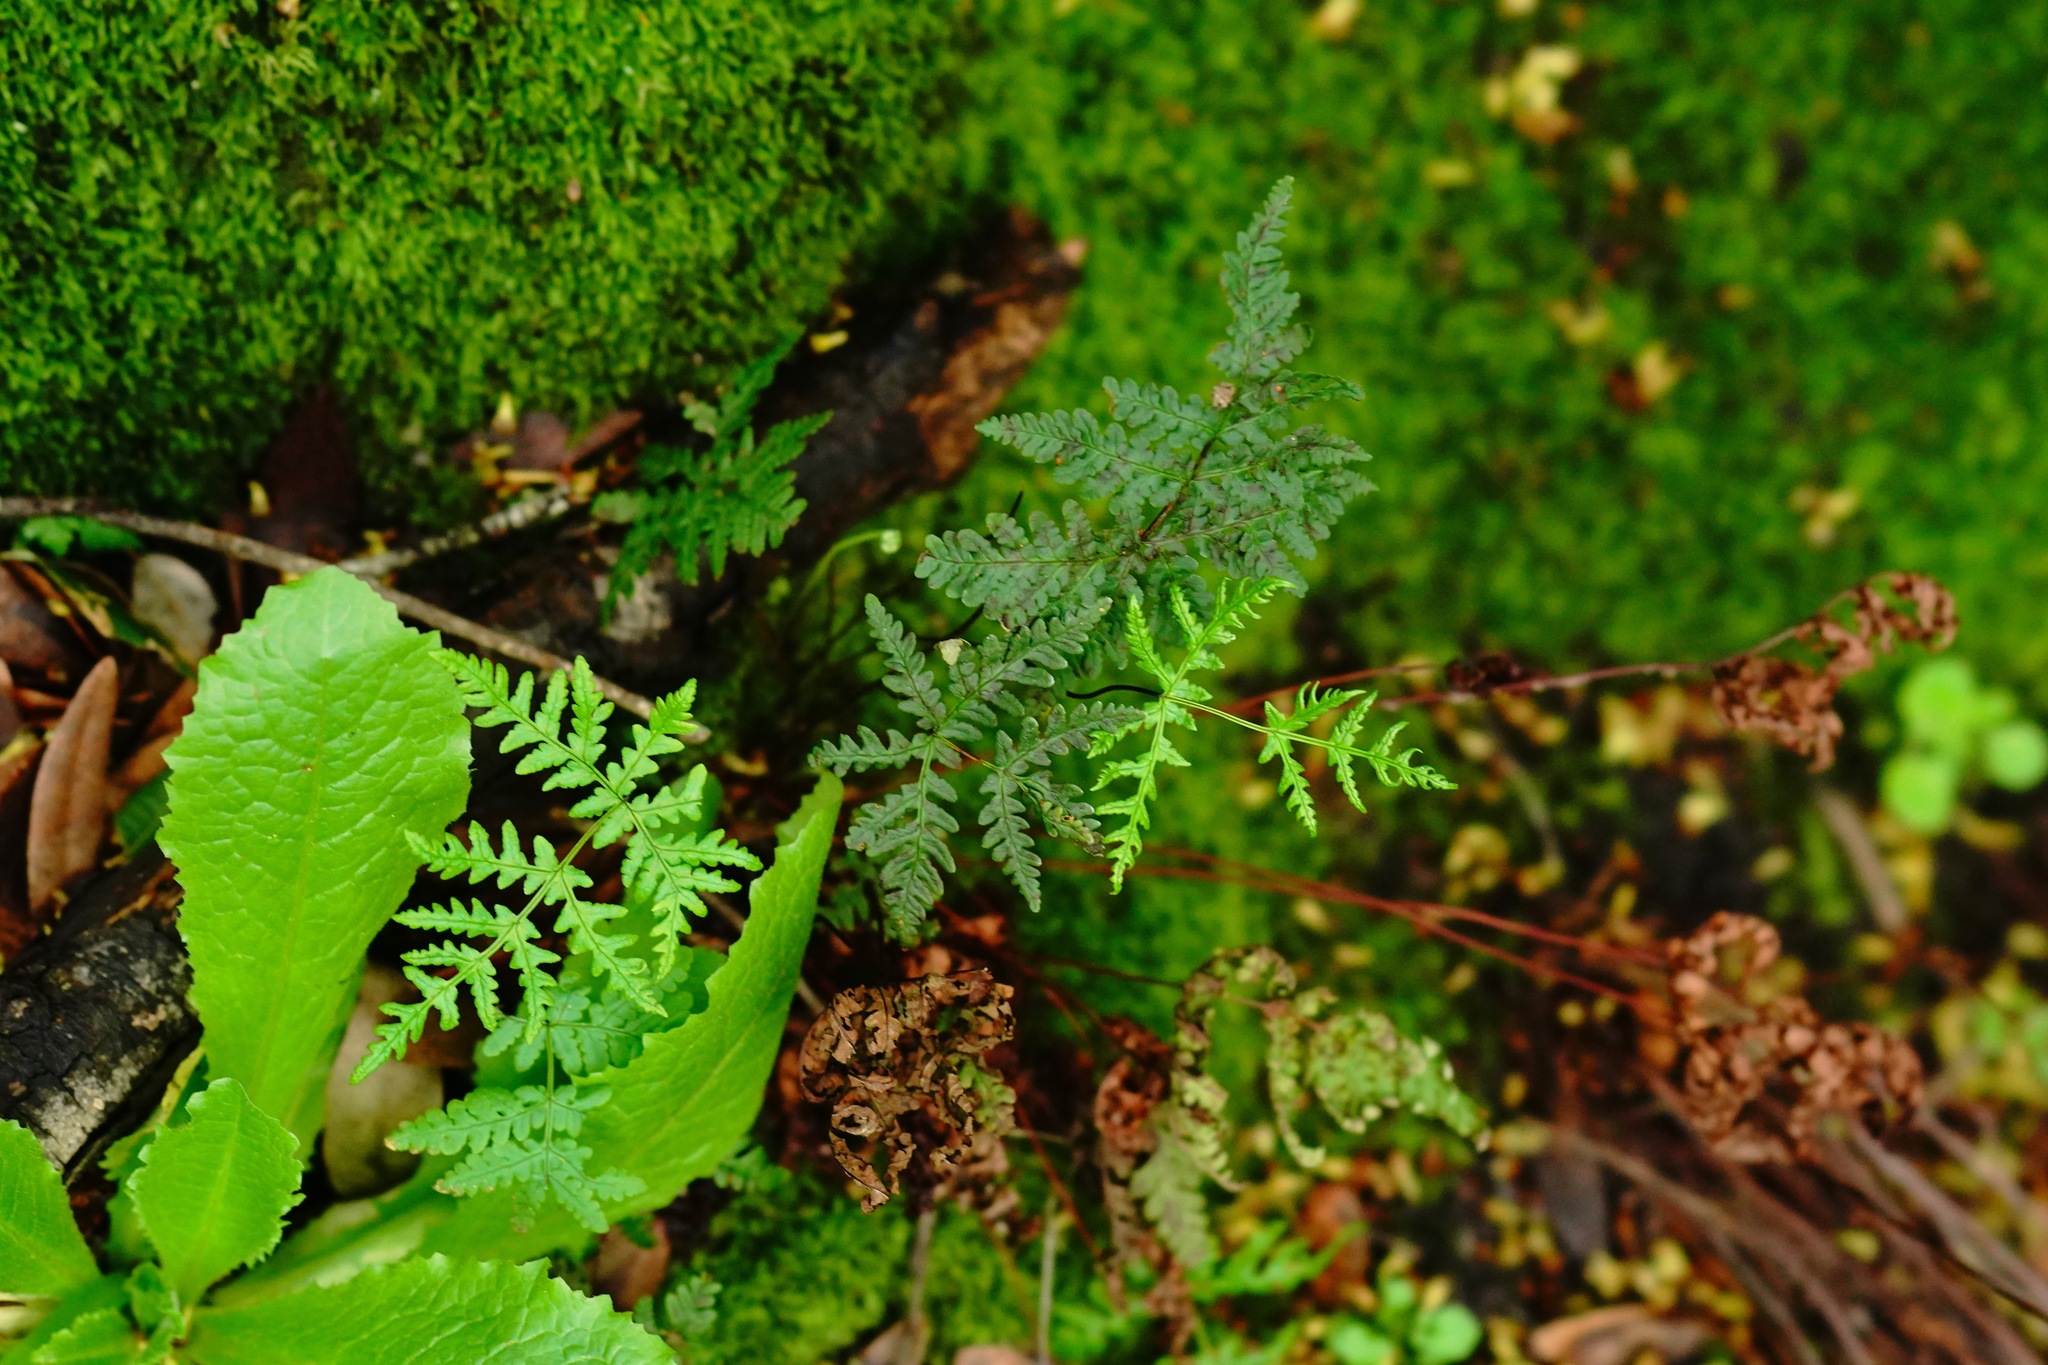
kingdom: Plantae
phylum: Tracheophyta
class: Polypodiopsida
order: Polypodiales
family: Pteridaceae
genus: Pentagramma
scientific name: Pentagramma triangularis
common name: Gold fern
